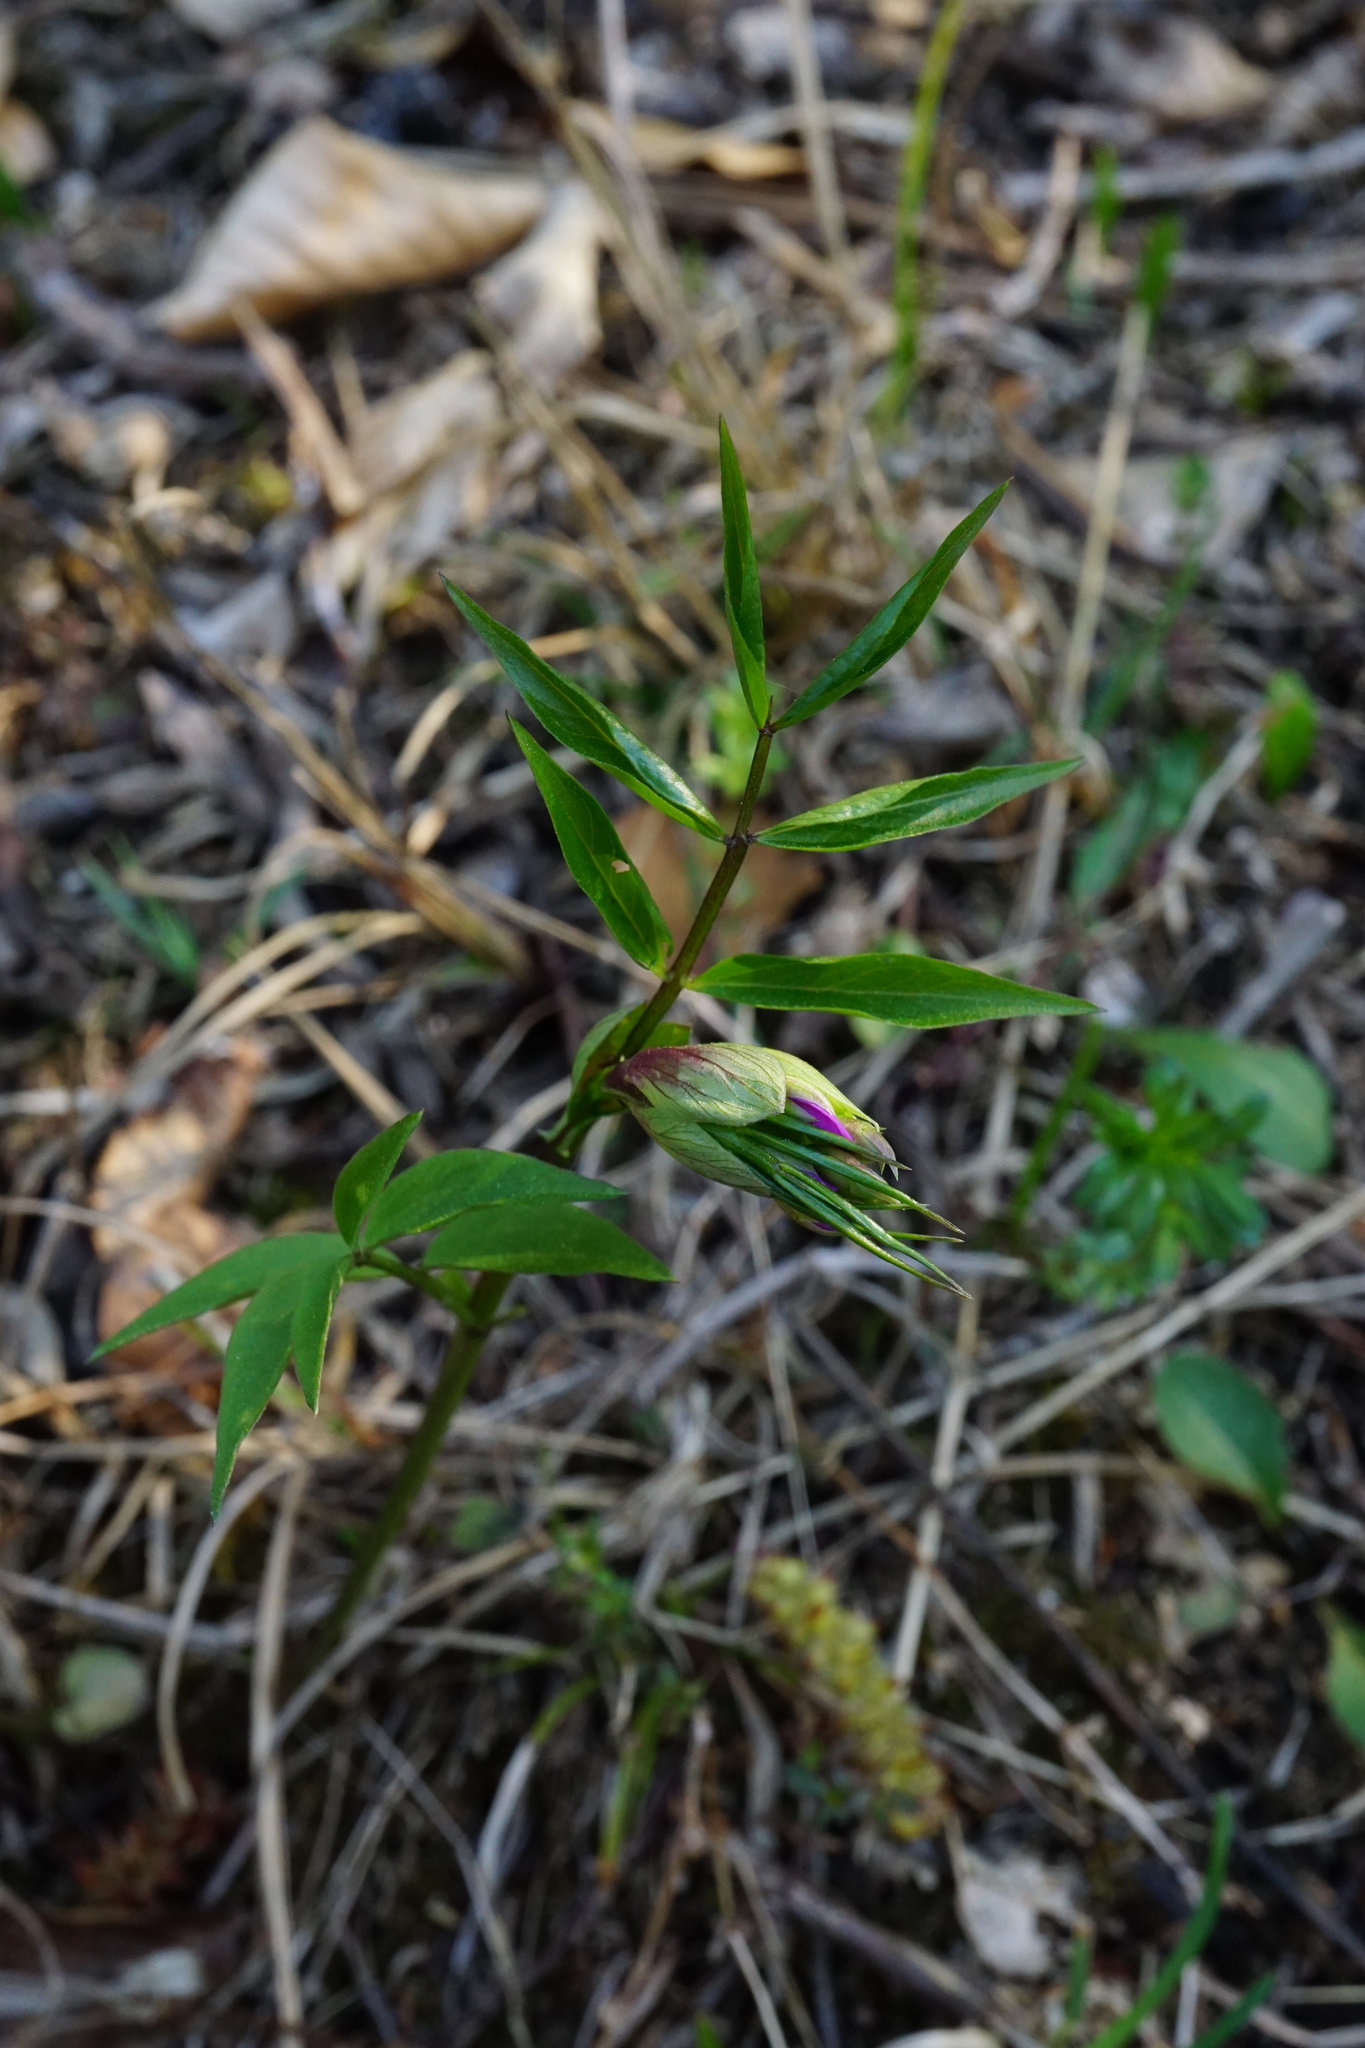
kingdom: Plantae
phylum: Tracheophyta
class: Magnoliopsida
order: Fabales
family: Fabaceae
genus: Lathyrus
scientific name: Lathyrus vernus
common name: Spring pea
